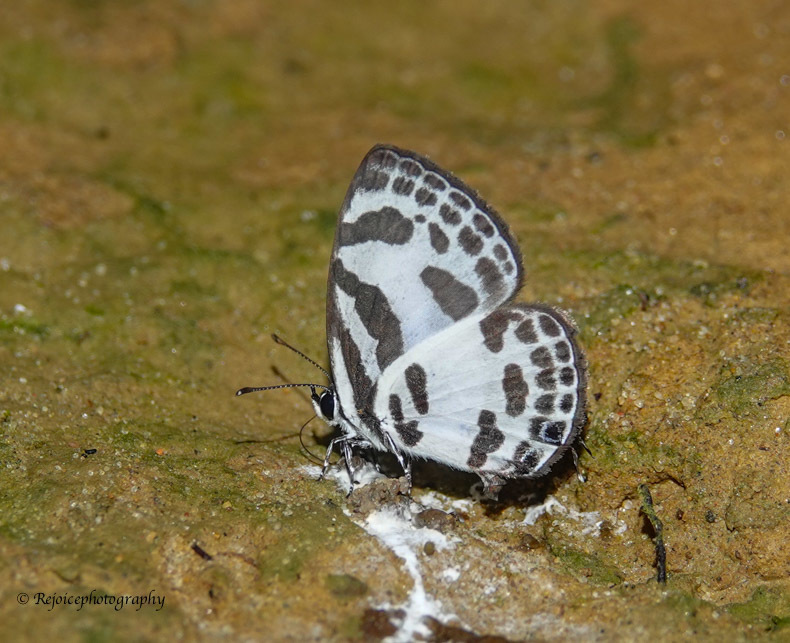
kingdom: Animalia
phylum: Arthropoda
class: Insecta
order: Lepidoptera
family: Lycaenidae
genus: Discolampa
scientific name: Discolampa ethion
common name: Banded blue pierrot
